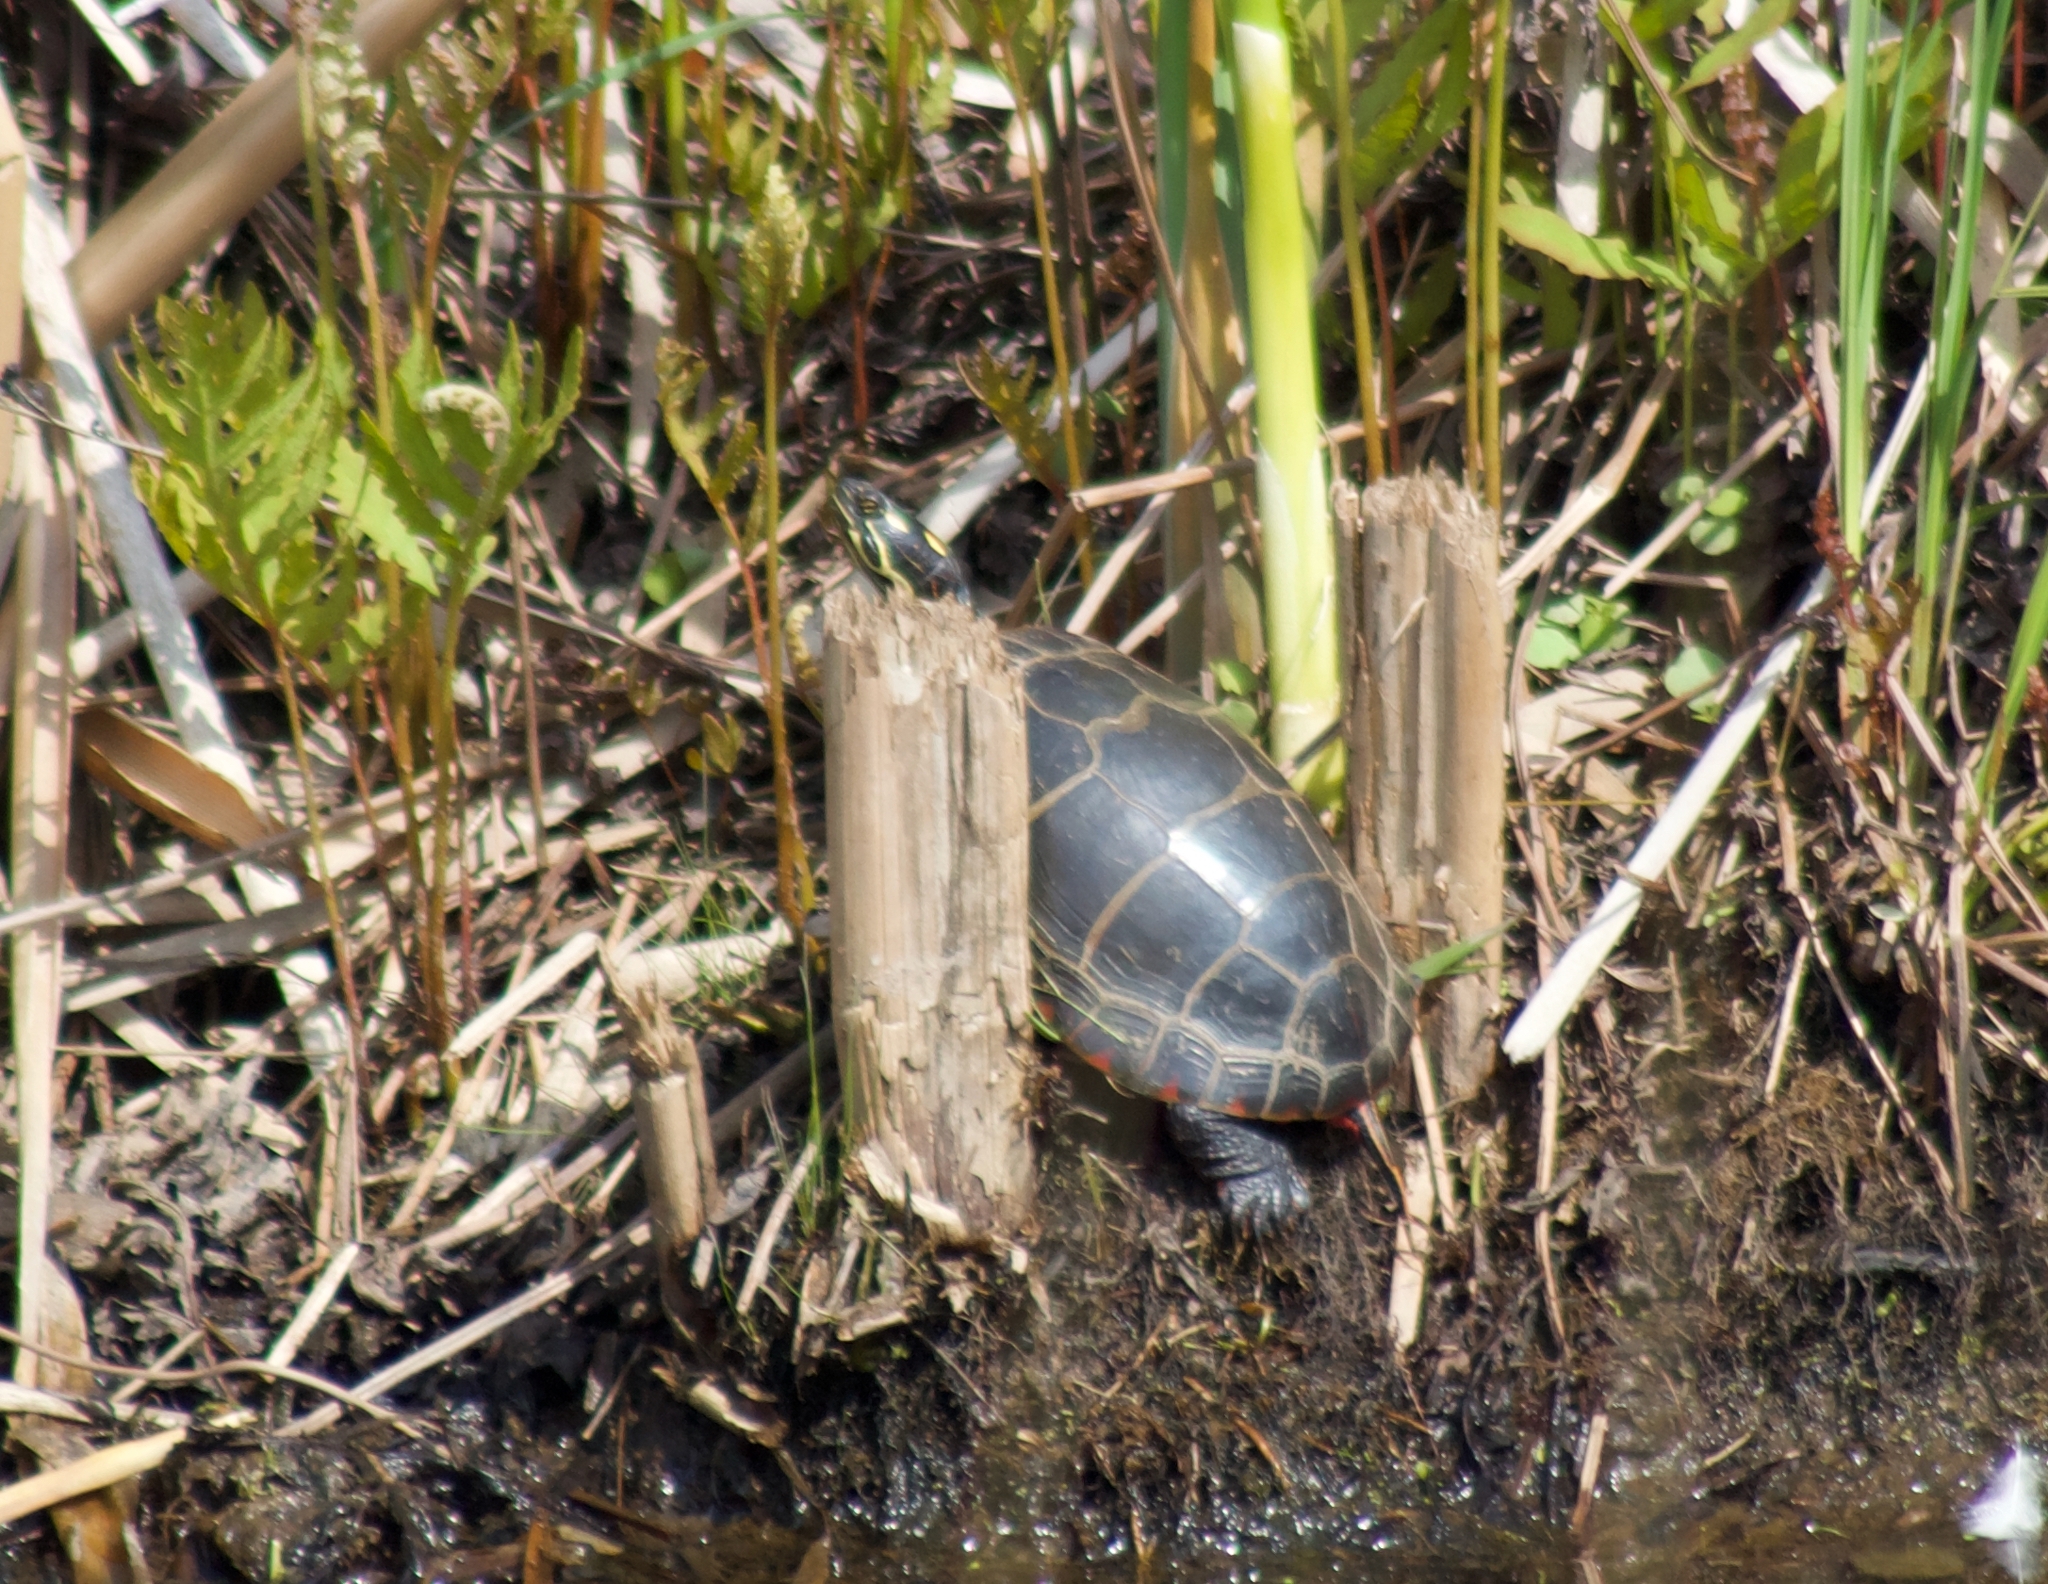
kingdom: Animalia
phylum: Chordata
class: Testudines
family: Emydidae
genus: Chrysemys
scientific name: Chrysemys picta
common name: Painted turtle
